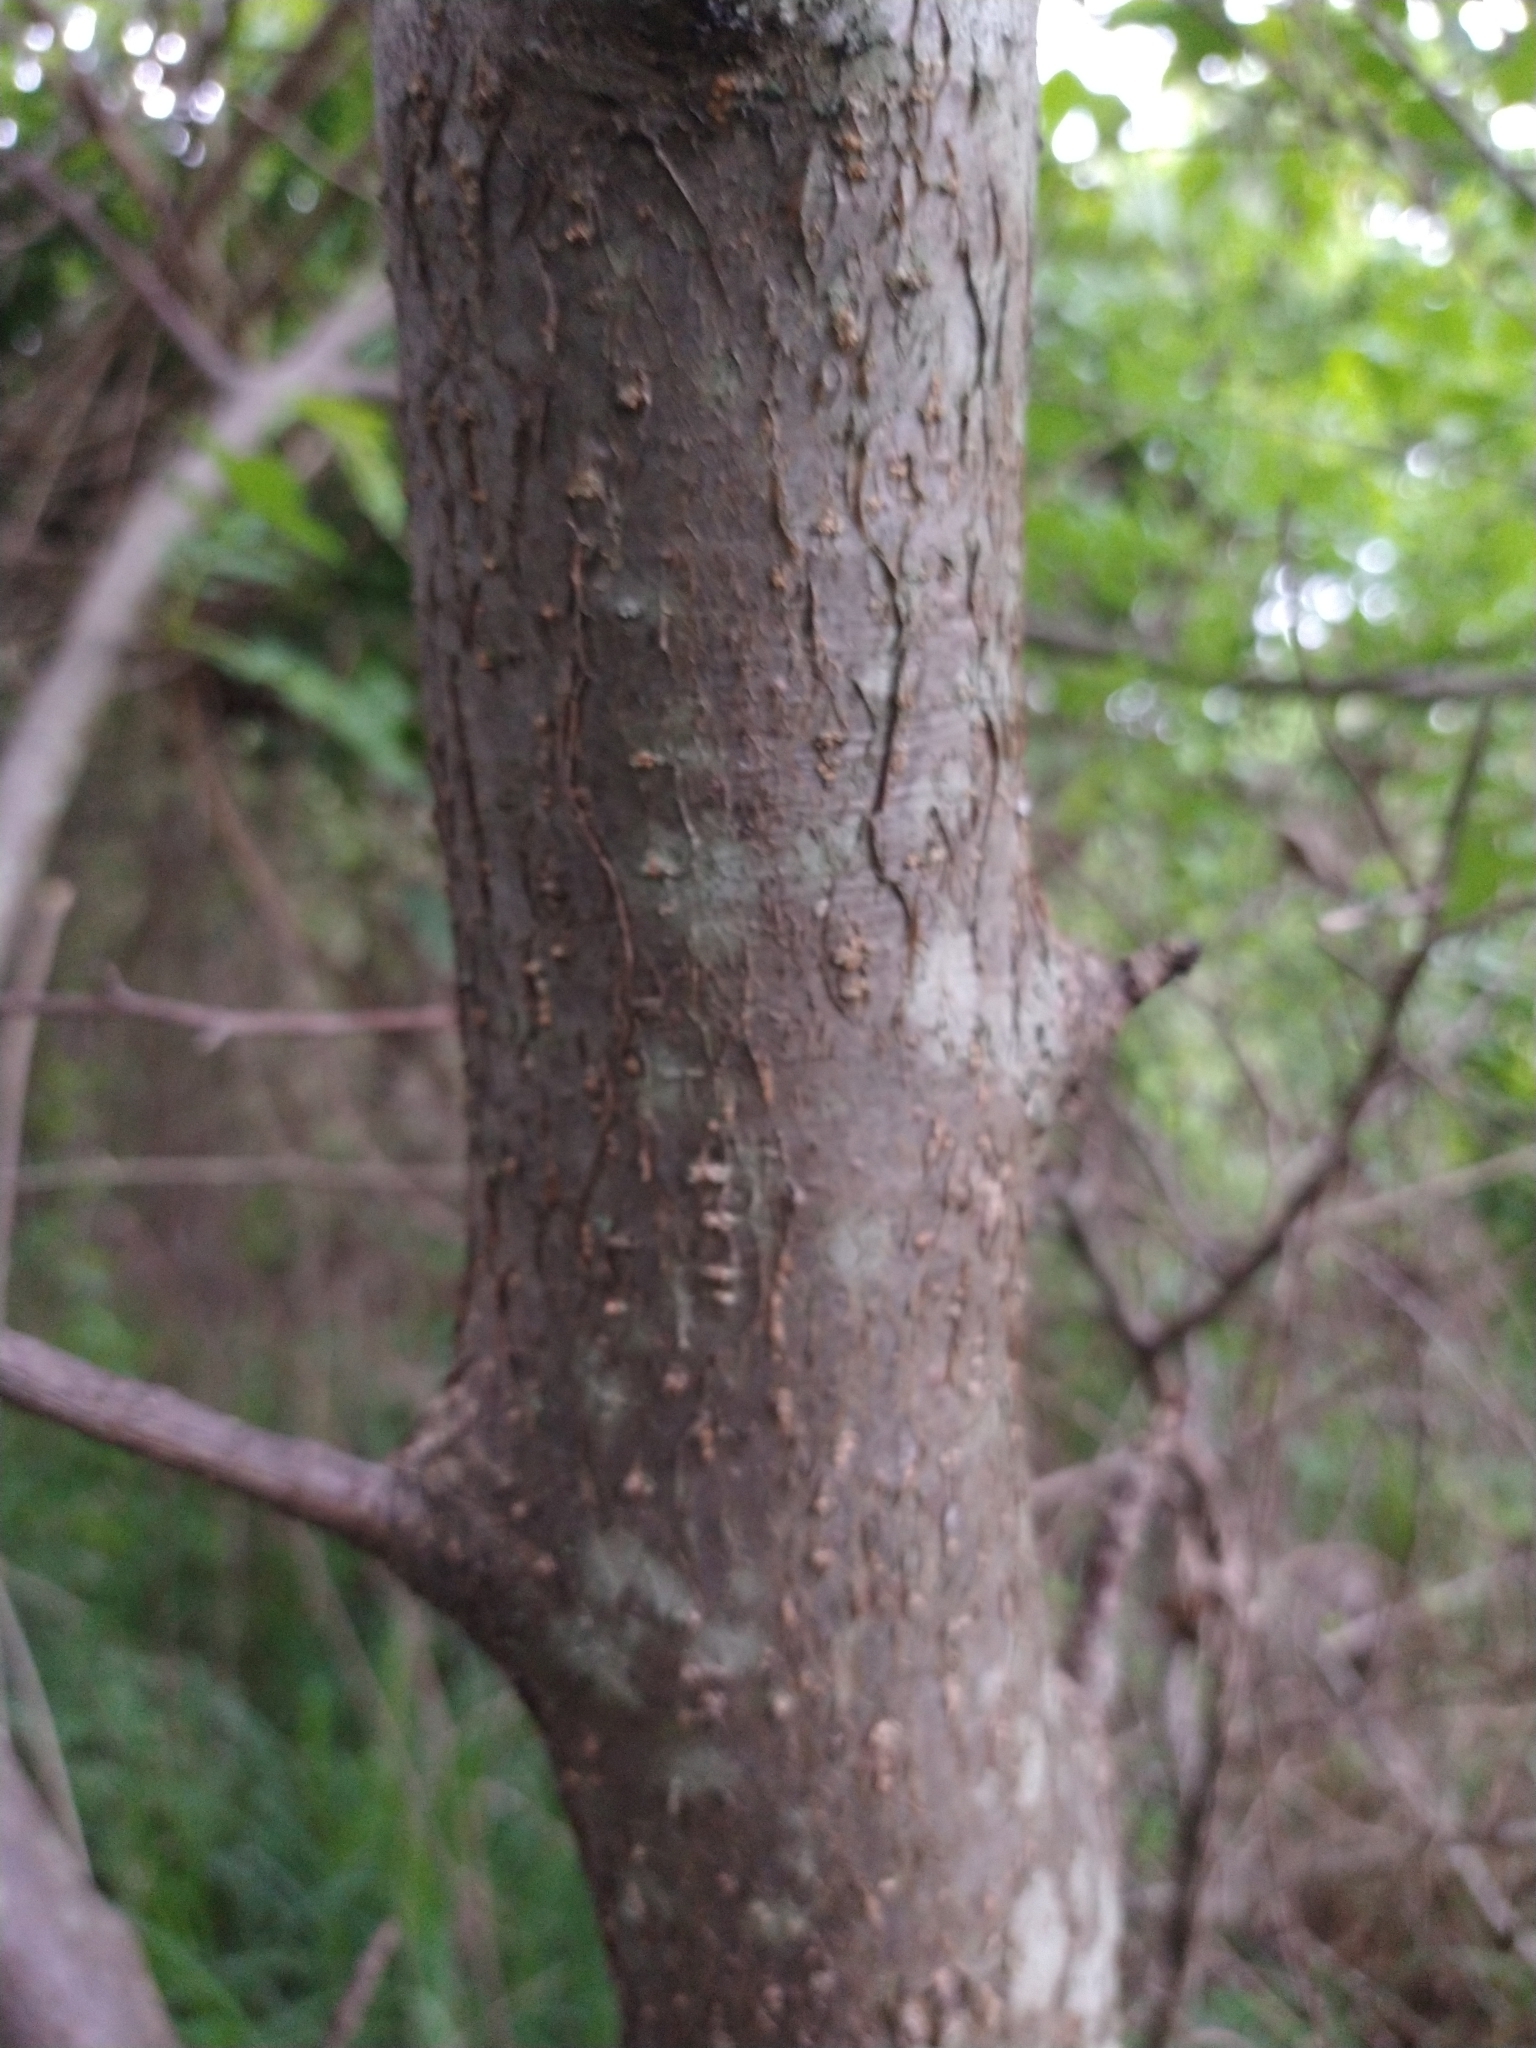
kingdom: Plantae
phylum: Tracheophyta
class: Magnoliopsida
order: Sapindales
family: Burseraceae
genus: Bursera
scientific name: Bursera penicillata
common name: Indian-lavender
